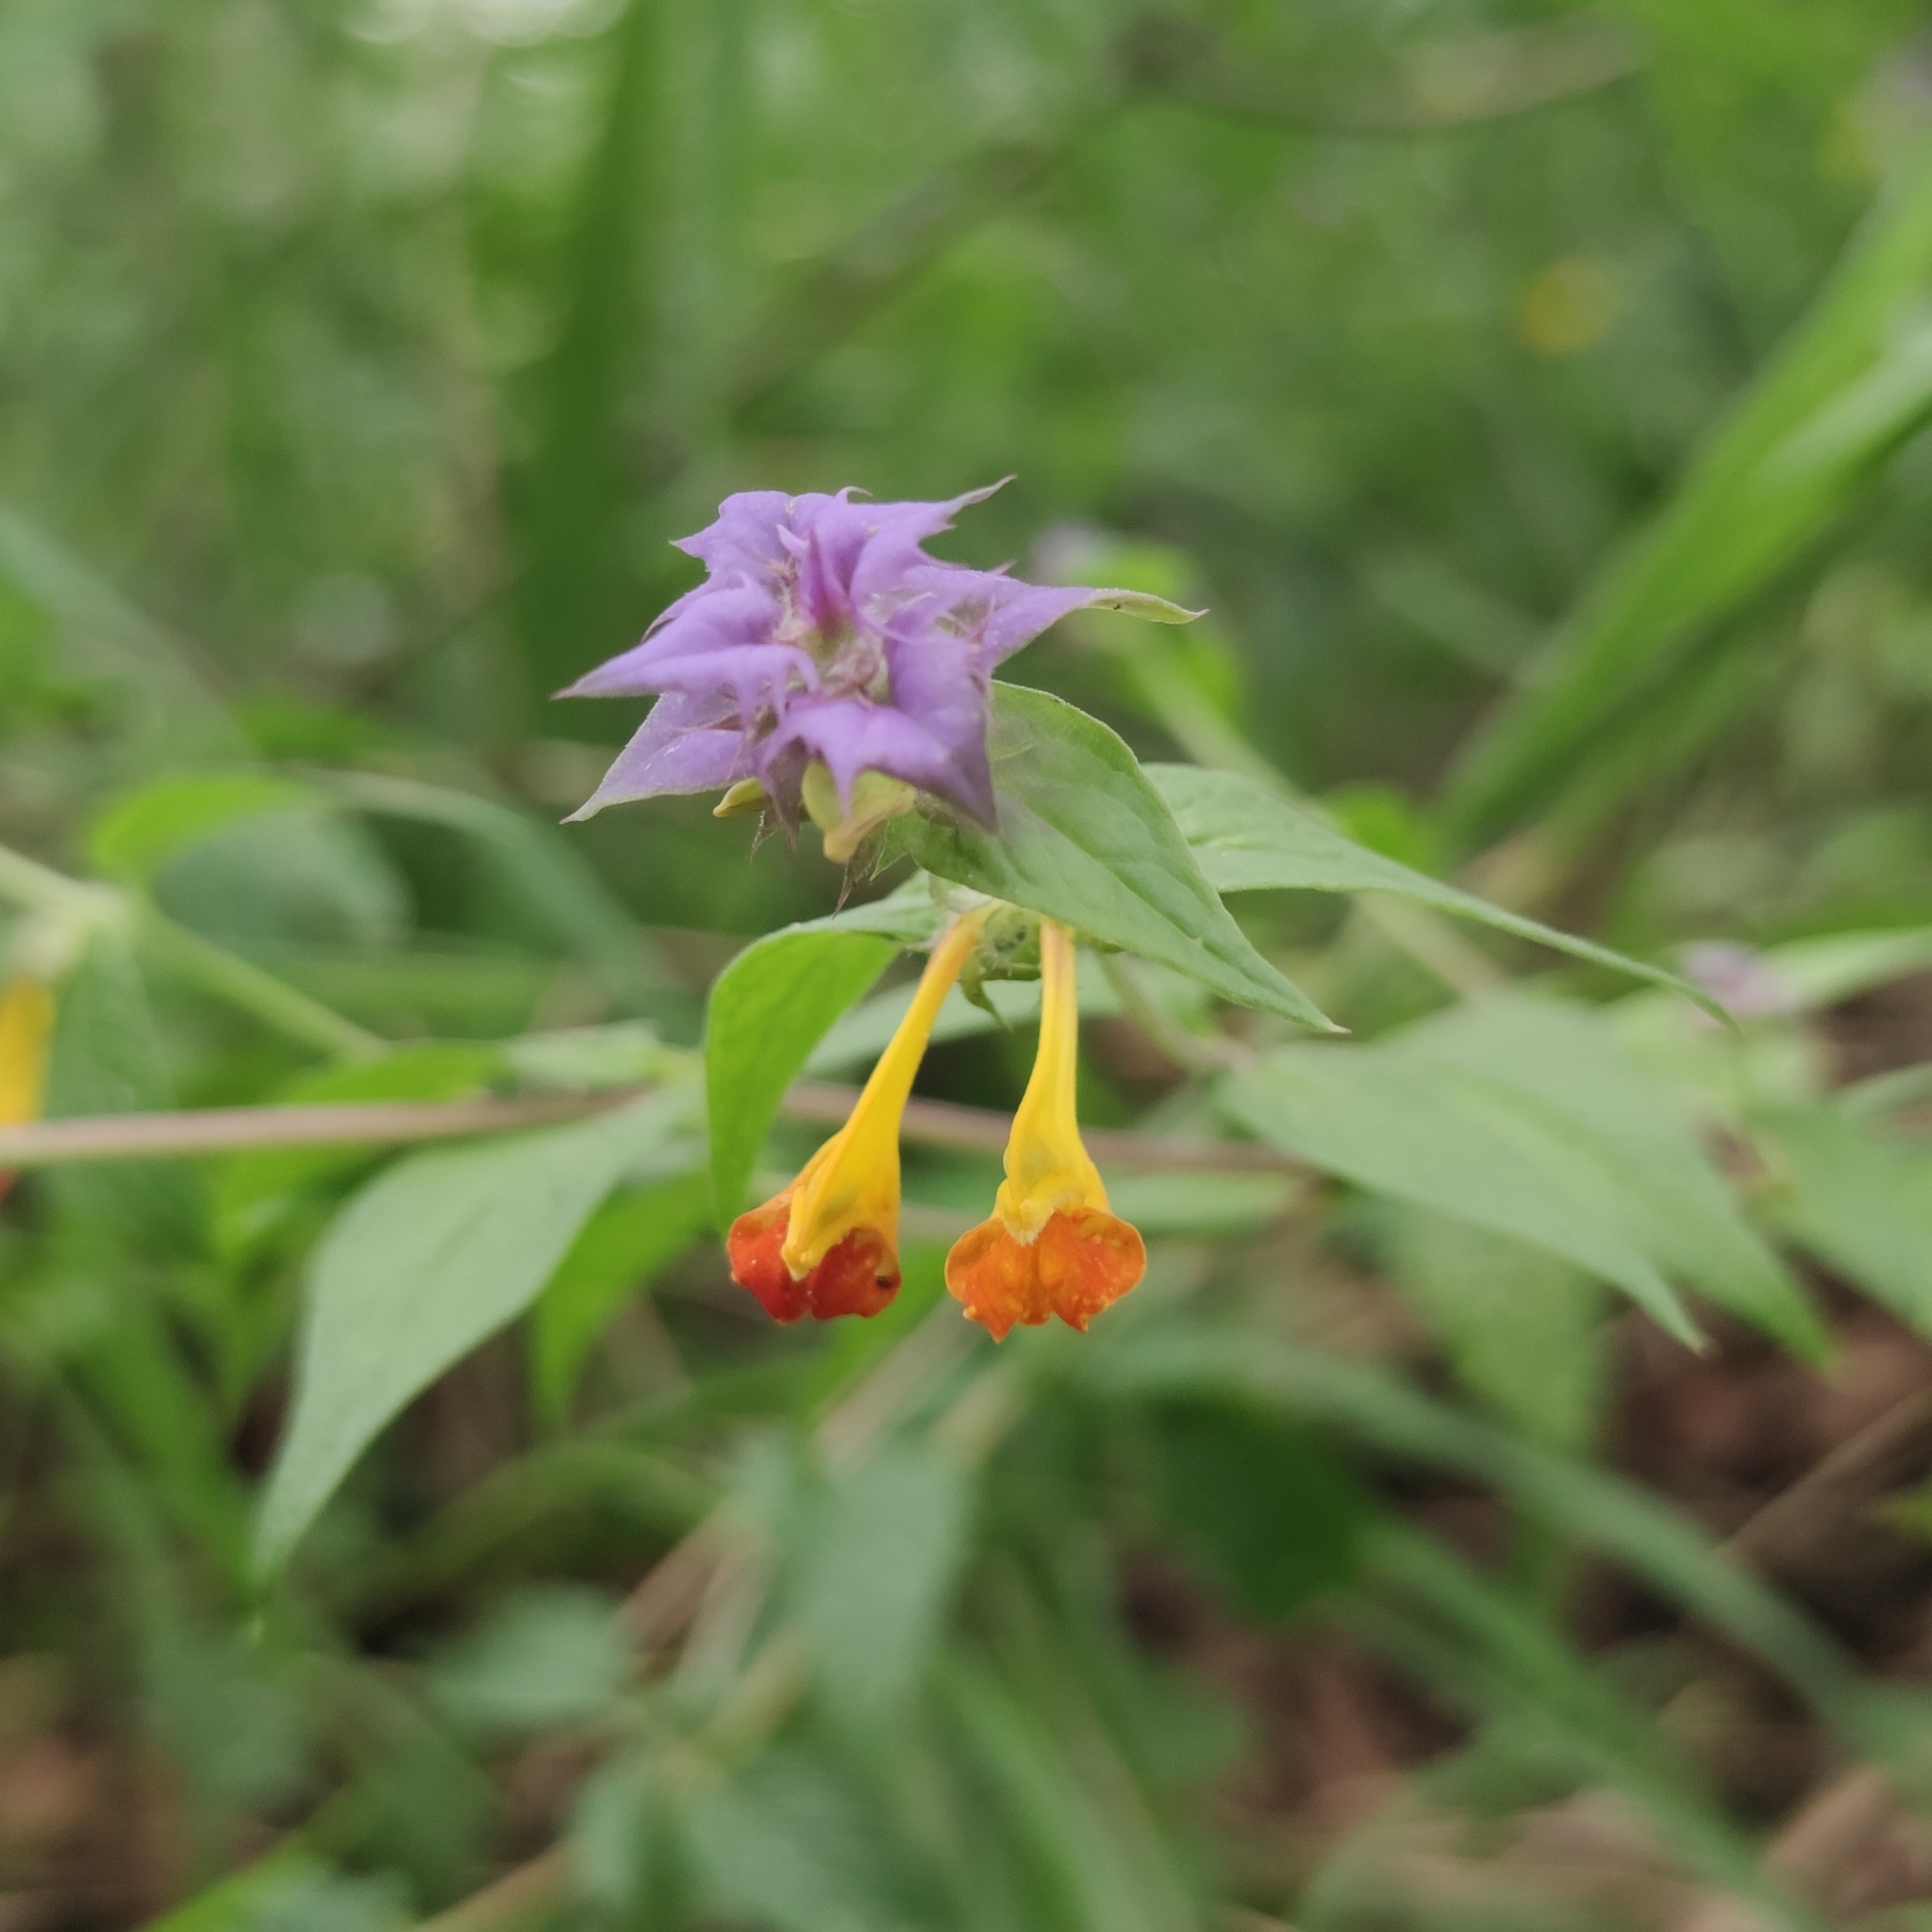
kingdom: Plantae
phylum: Tracheophyta
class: Magnoliopsida
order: Lamiales
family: Orobanchaceae
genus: Melampyrum
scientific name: Melampyrum nemorosum
